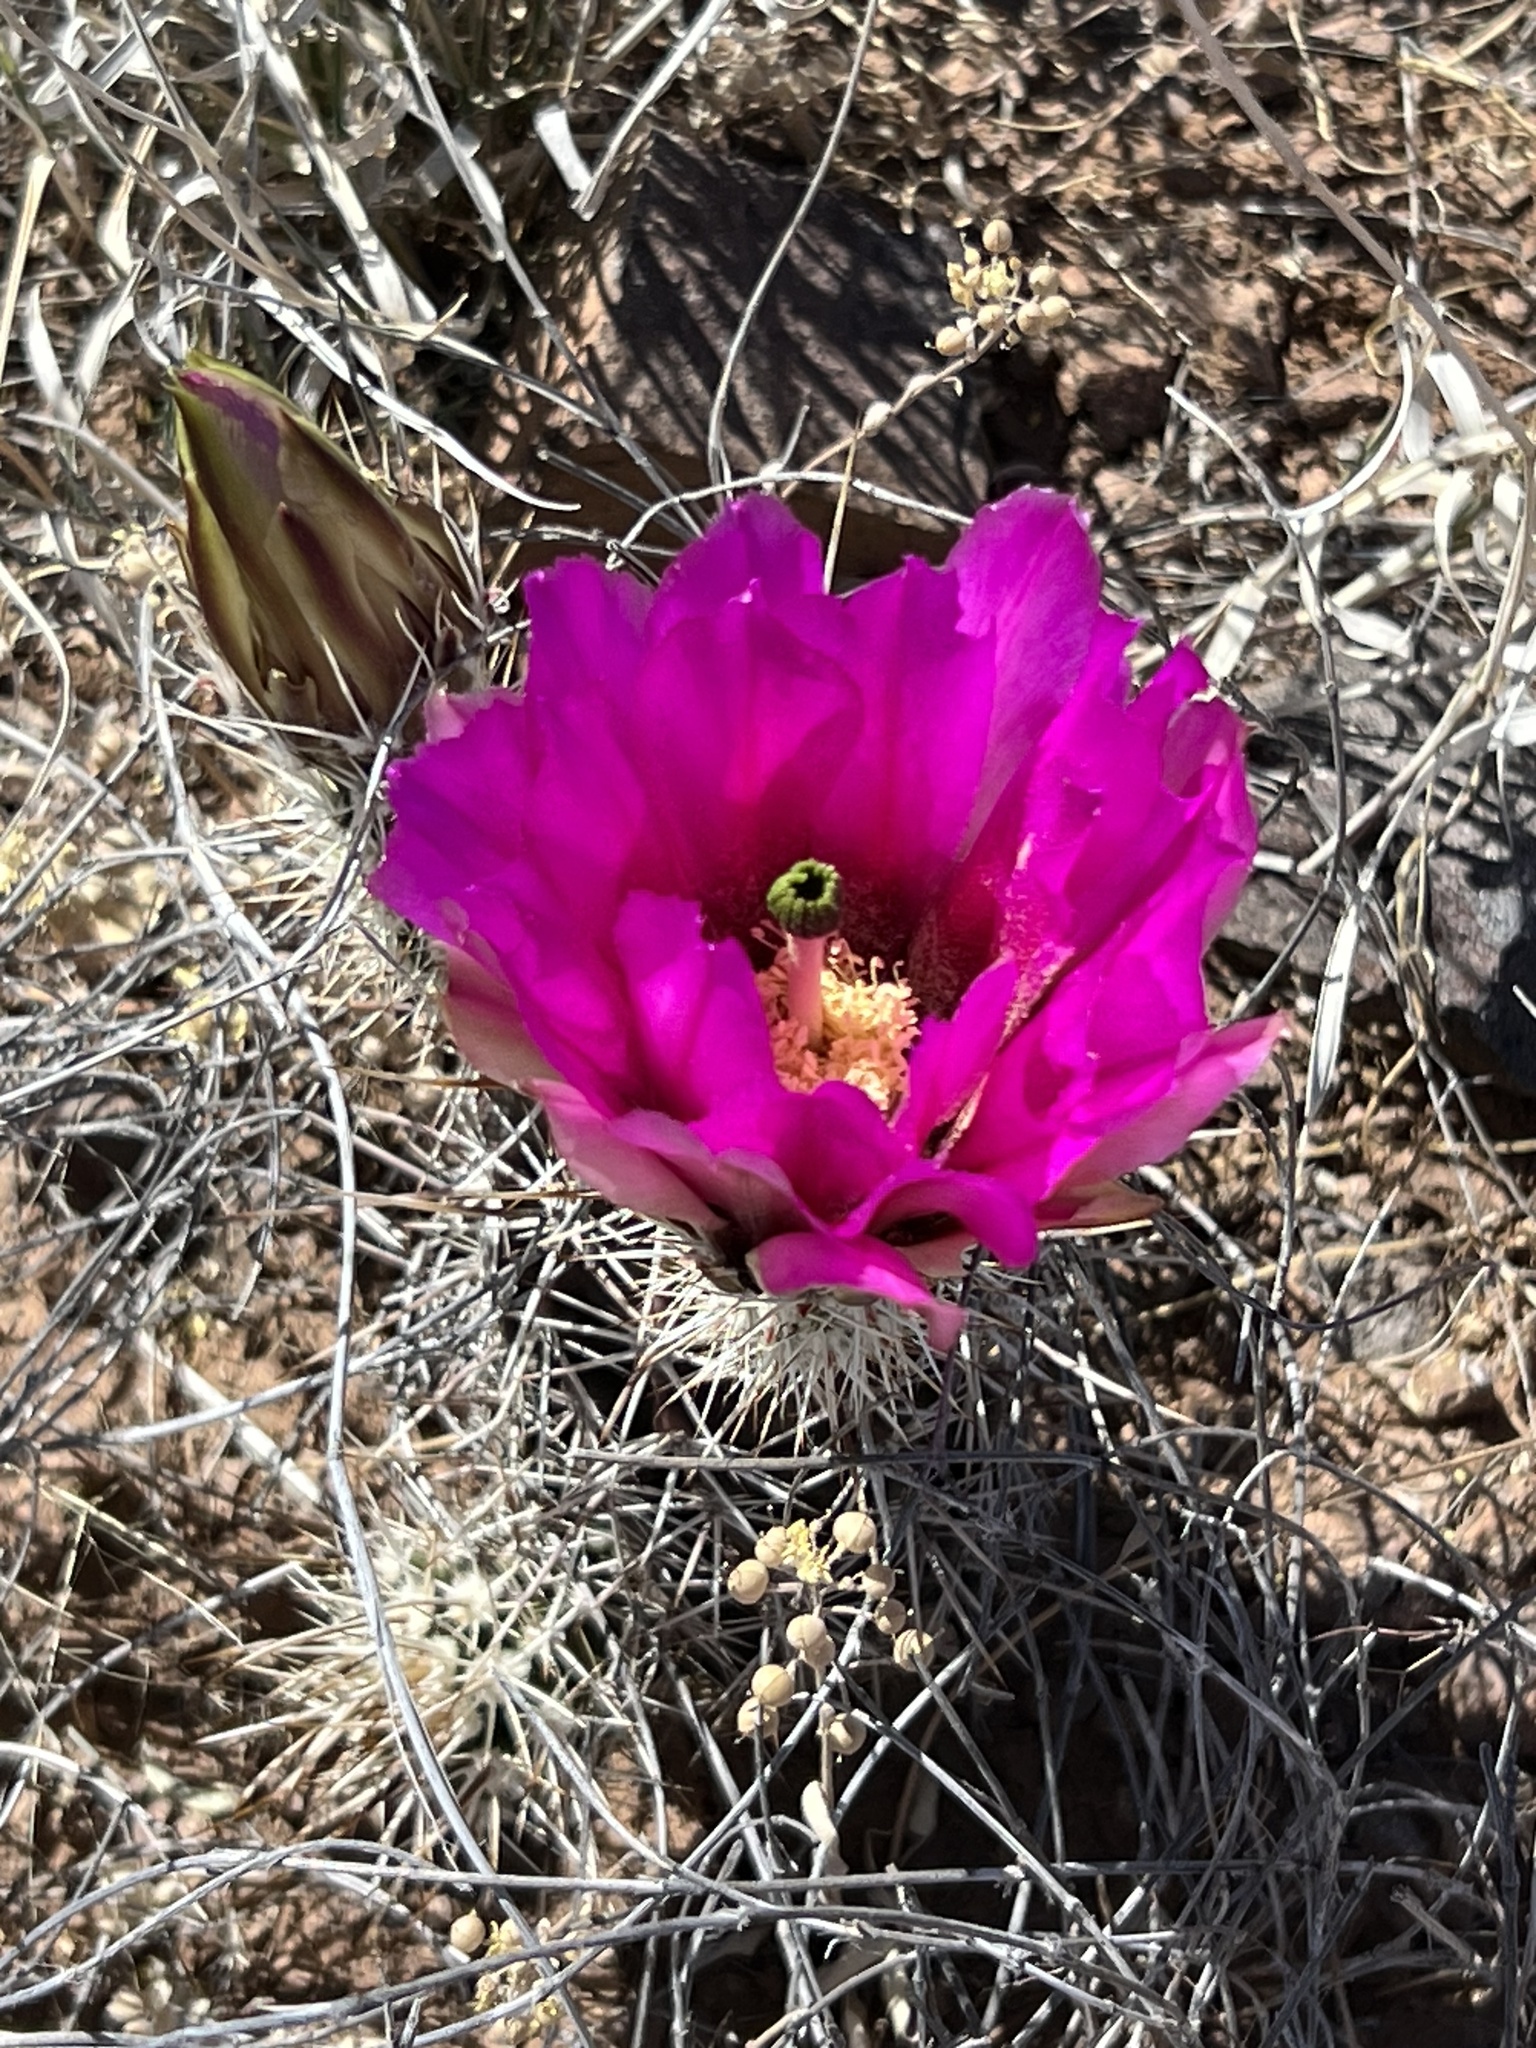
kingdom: Plantae
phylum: Tracheophyta
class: Magnoliopsida
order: Caryophyllales
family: Cactaceae
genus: Echinocereus
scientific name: Echinocereus fendleri
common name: Fendler's hedgehog cactus
